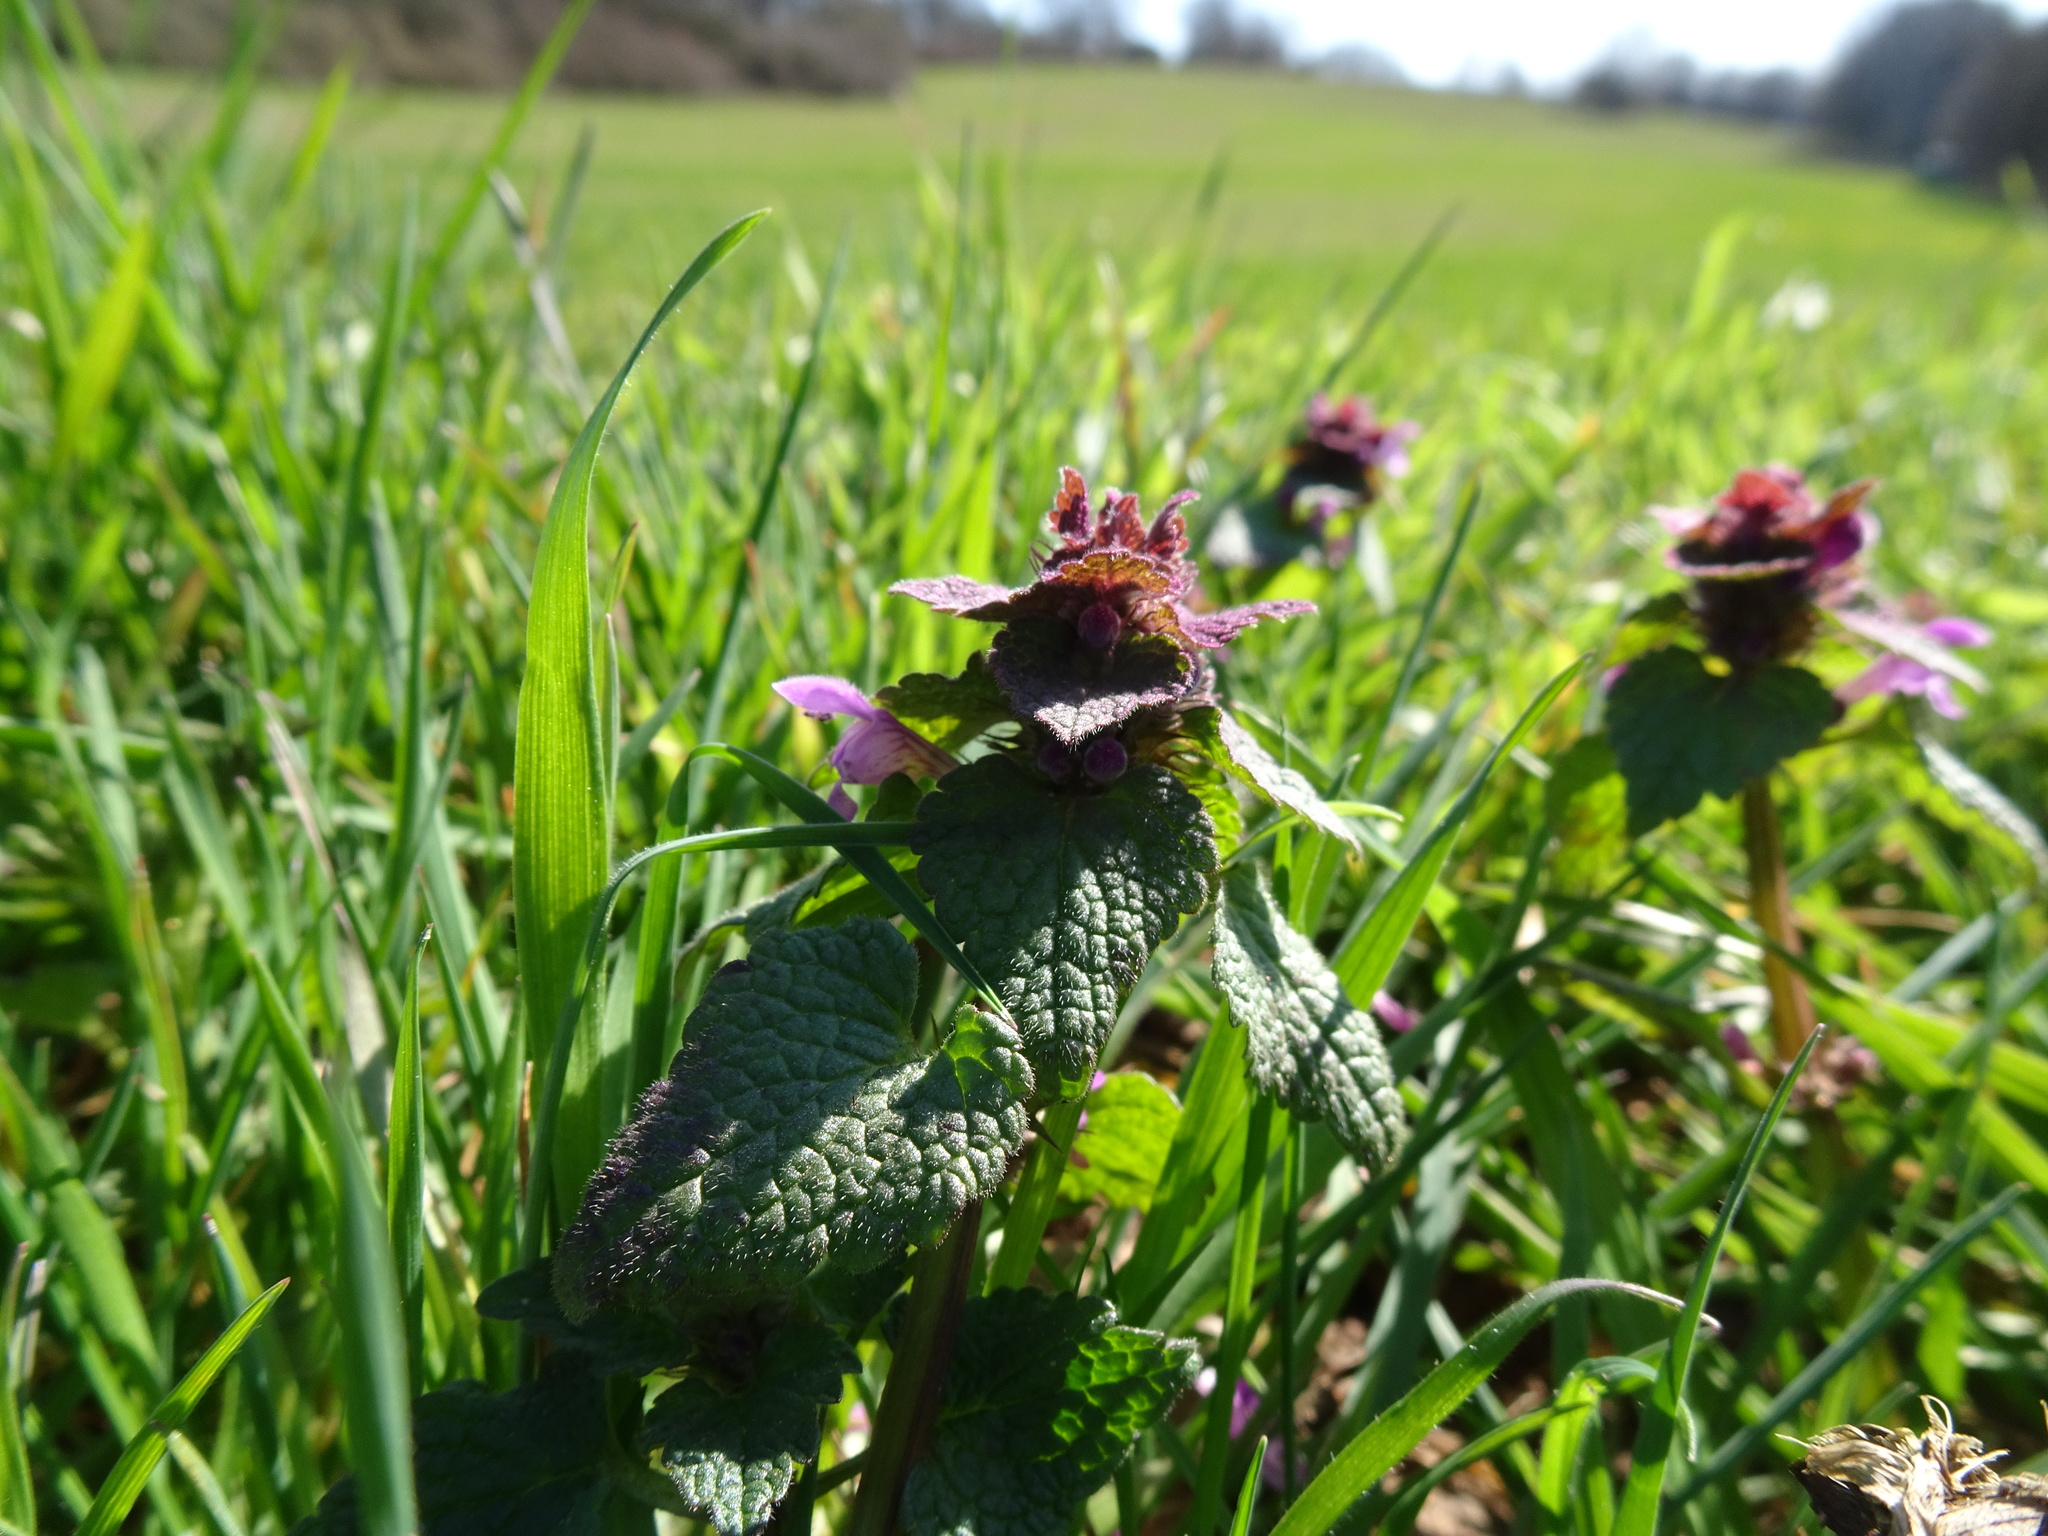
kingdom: Plantae
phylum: Tracheophyta
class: Magnoliopsida
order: Lamiales
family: Lamiaceae
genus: Lamium
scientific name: Lamium purpureum
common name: Red dead-nettle
